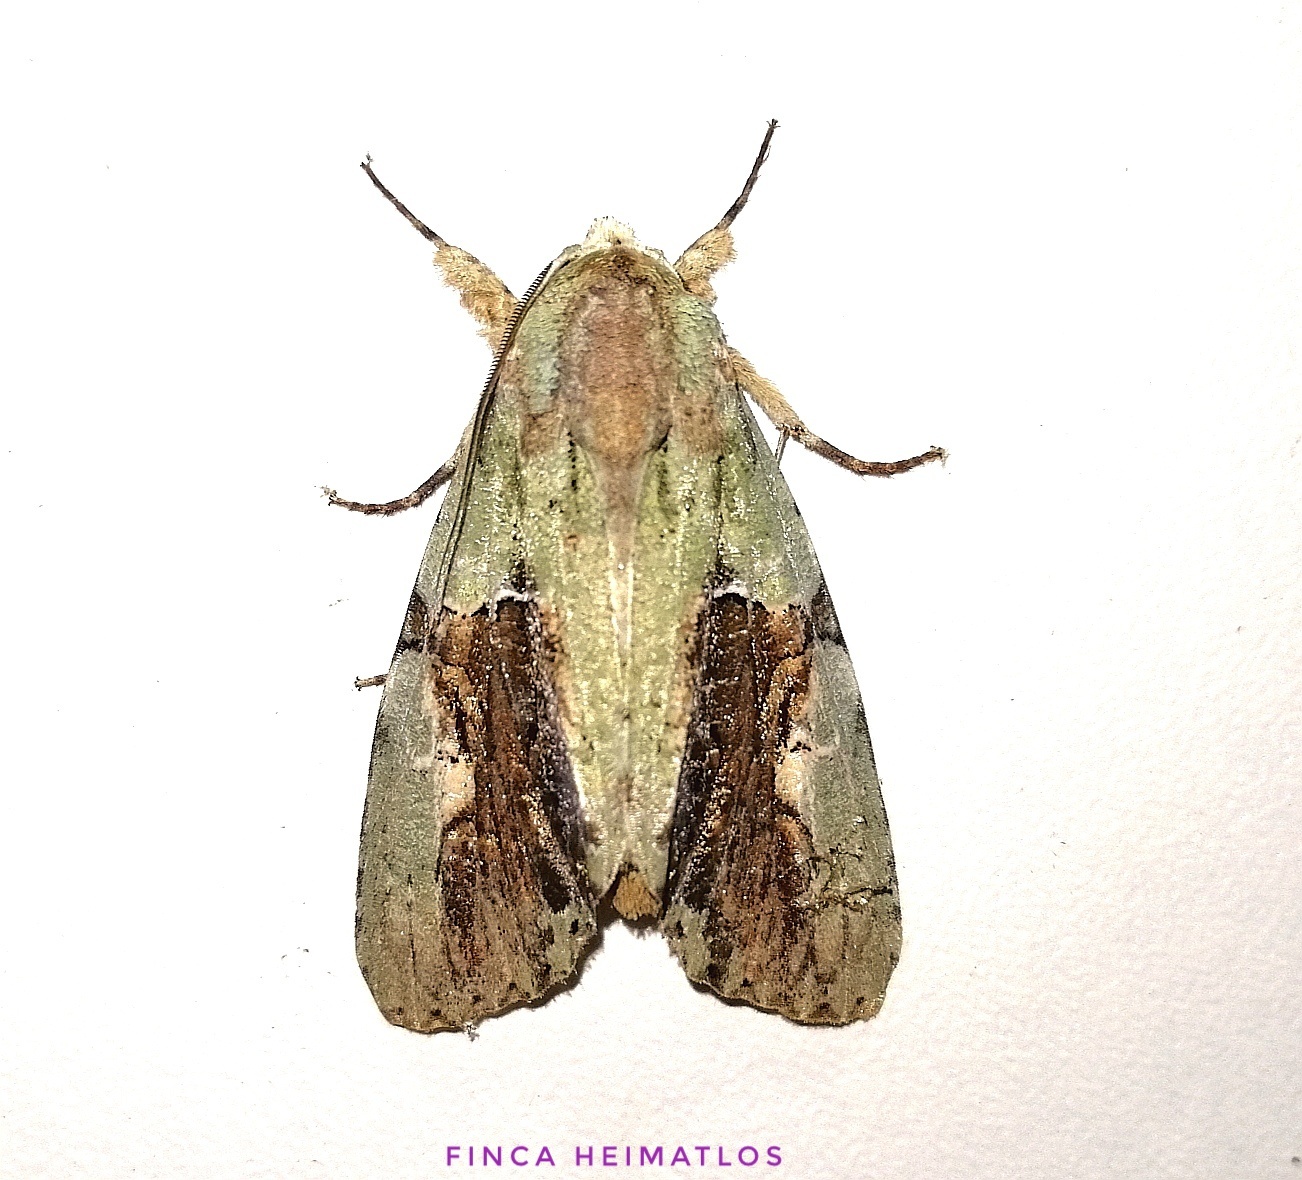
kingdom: Animalia
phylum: Arthropoda
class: Insecta
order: Lepidoptera
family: Noctuidae
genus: Stauropides
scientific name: Stauropides persimilis
